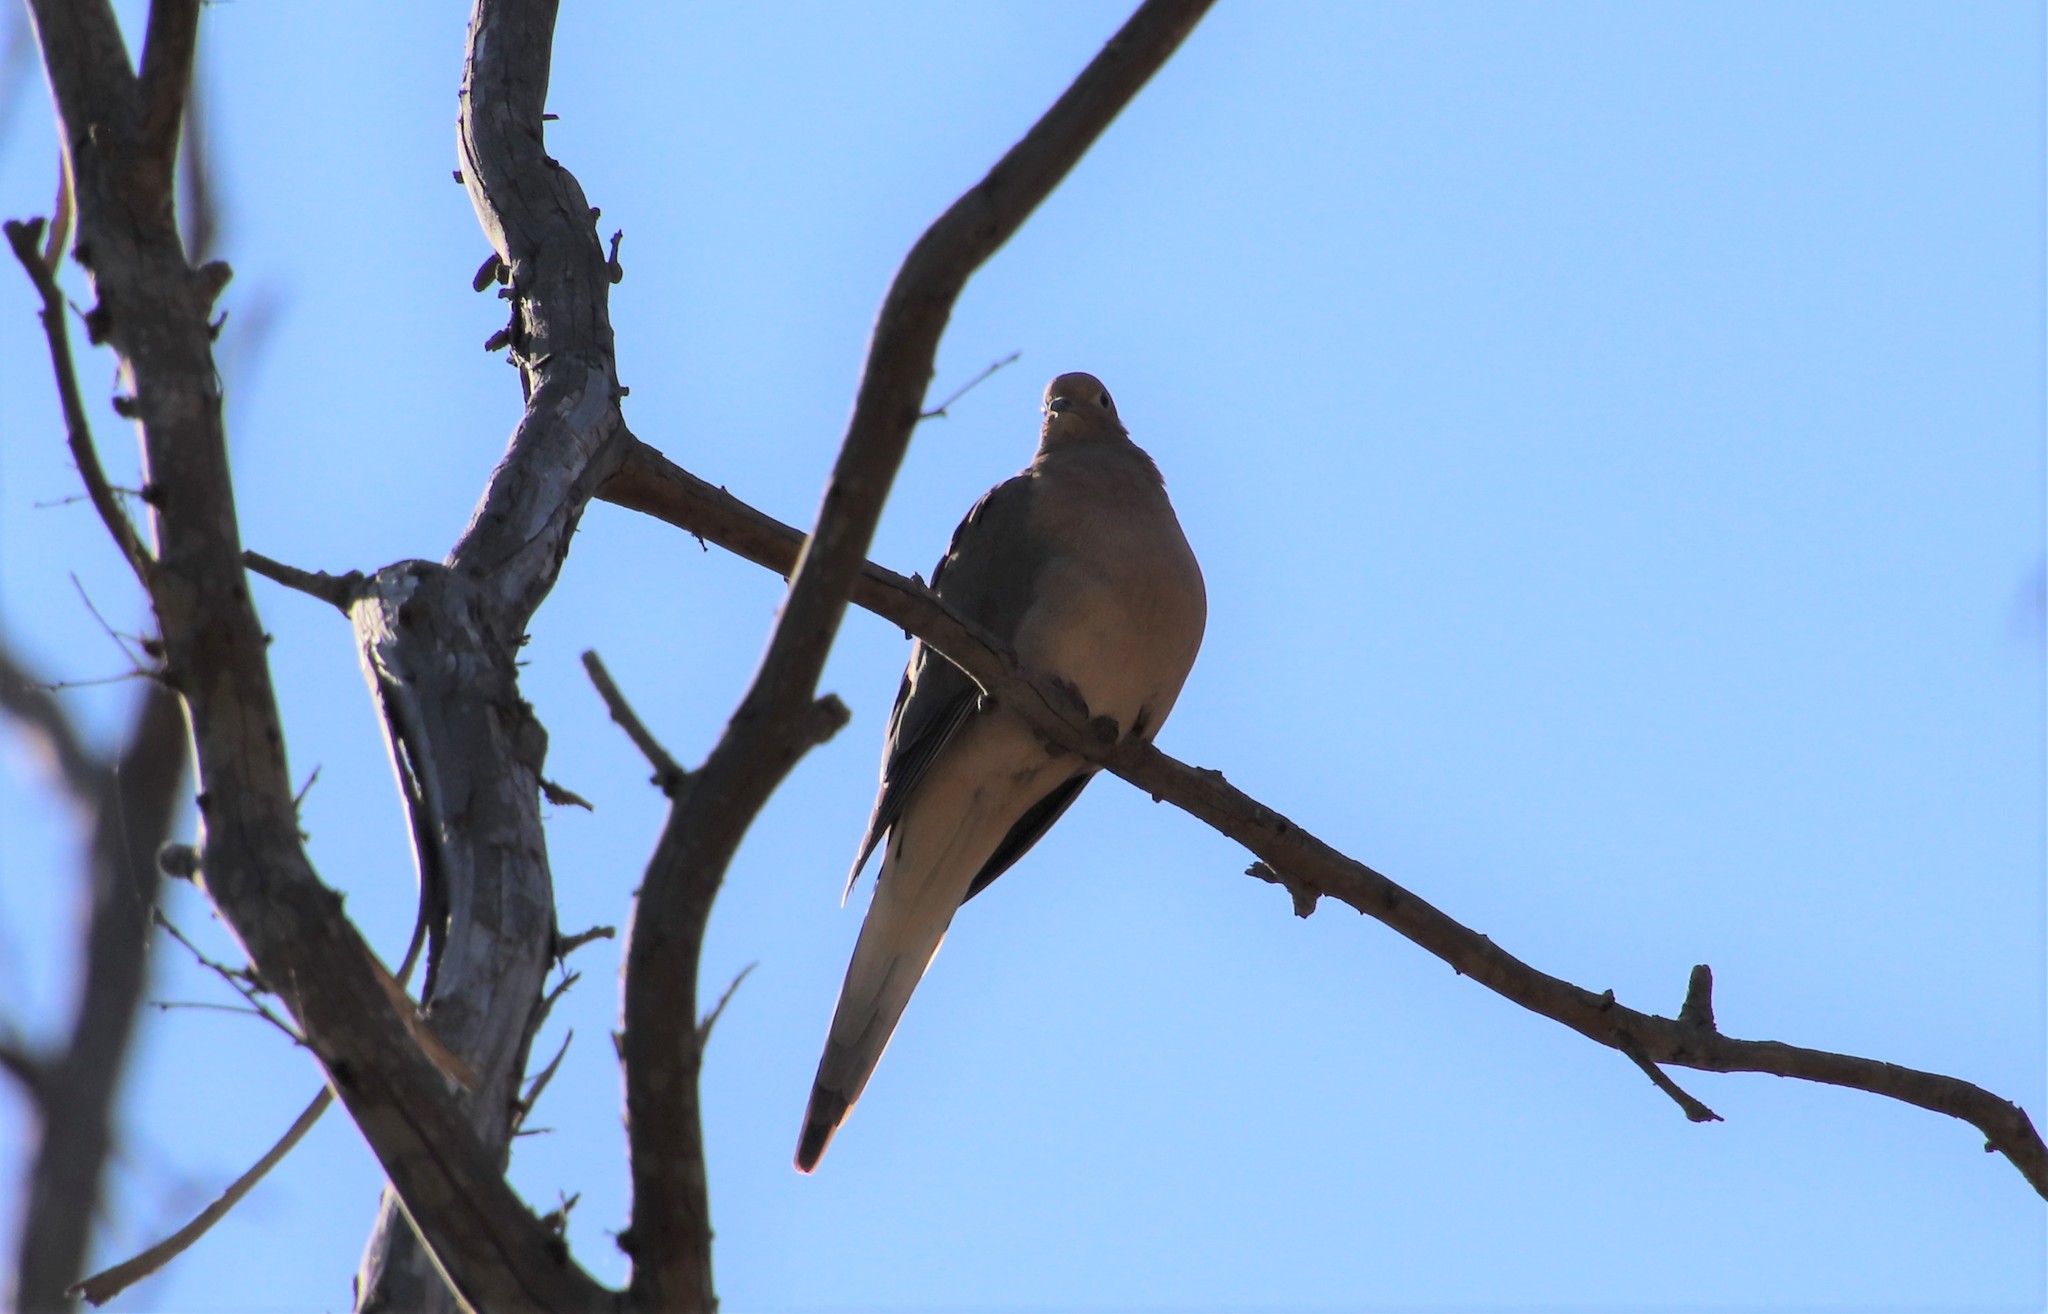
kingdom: Animalia
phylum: Chordata
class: Aves
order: Columbiformes
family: Columbidae
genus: Zenaida
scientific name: Zenaida macroura
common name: Mourning dove
